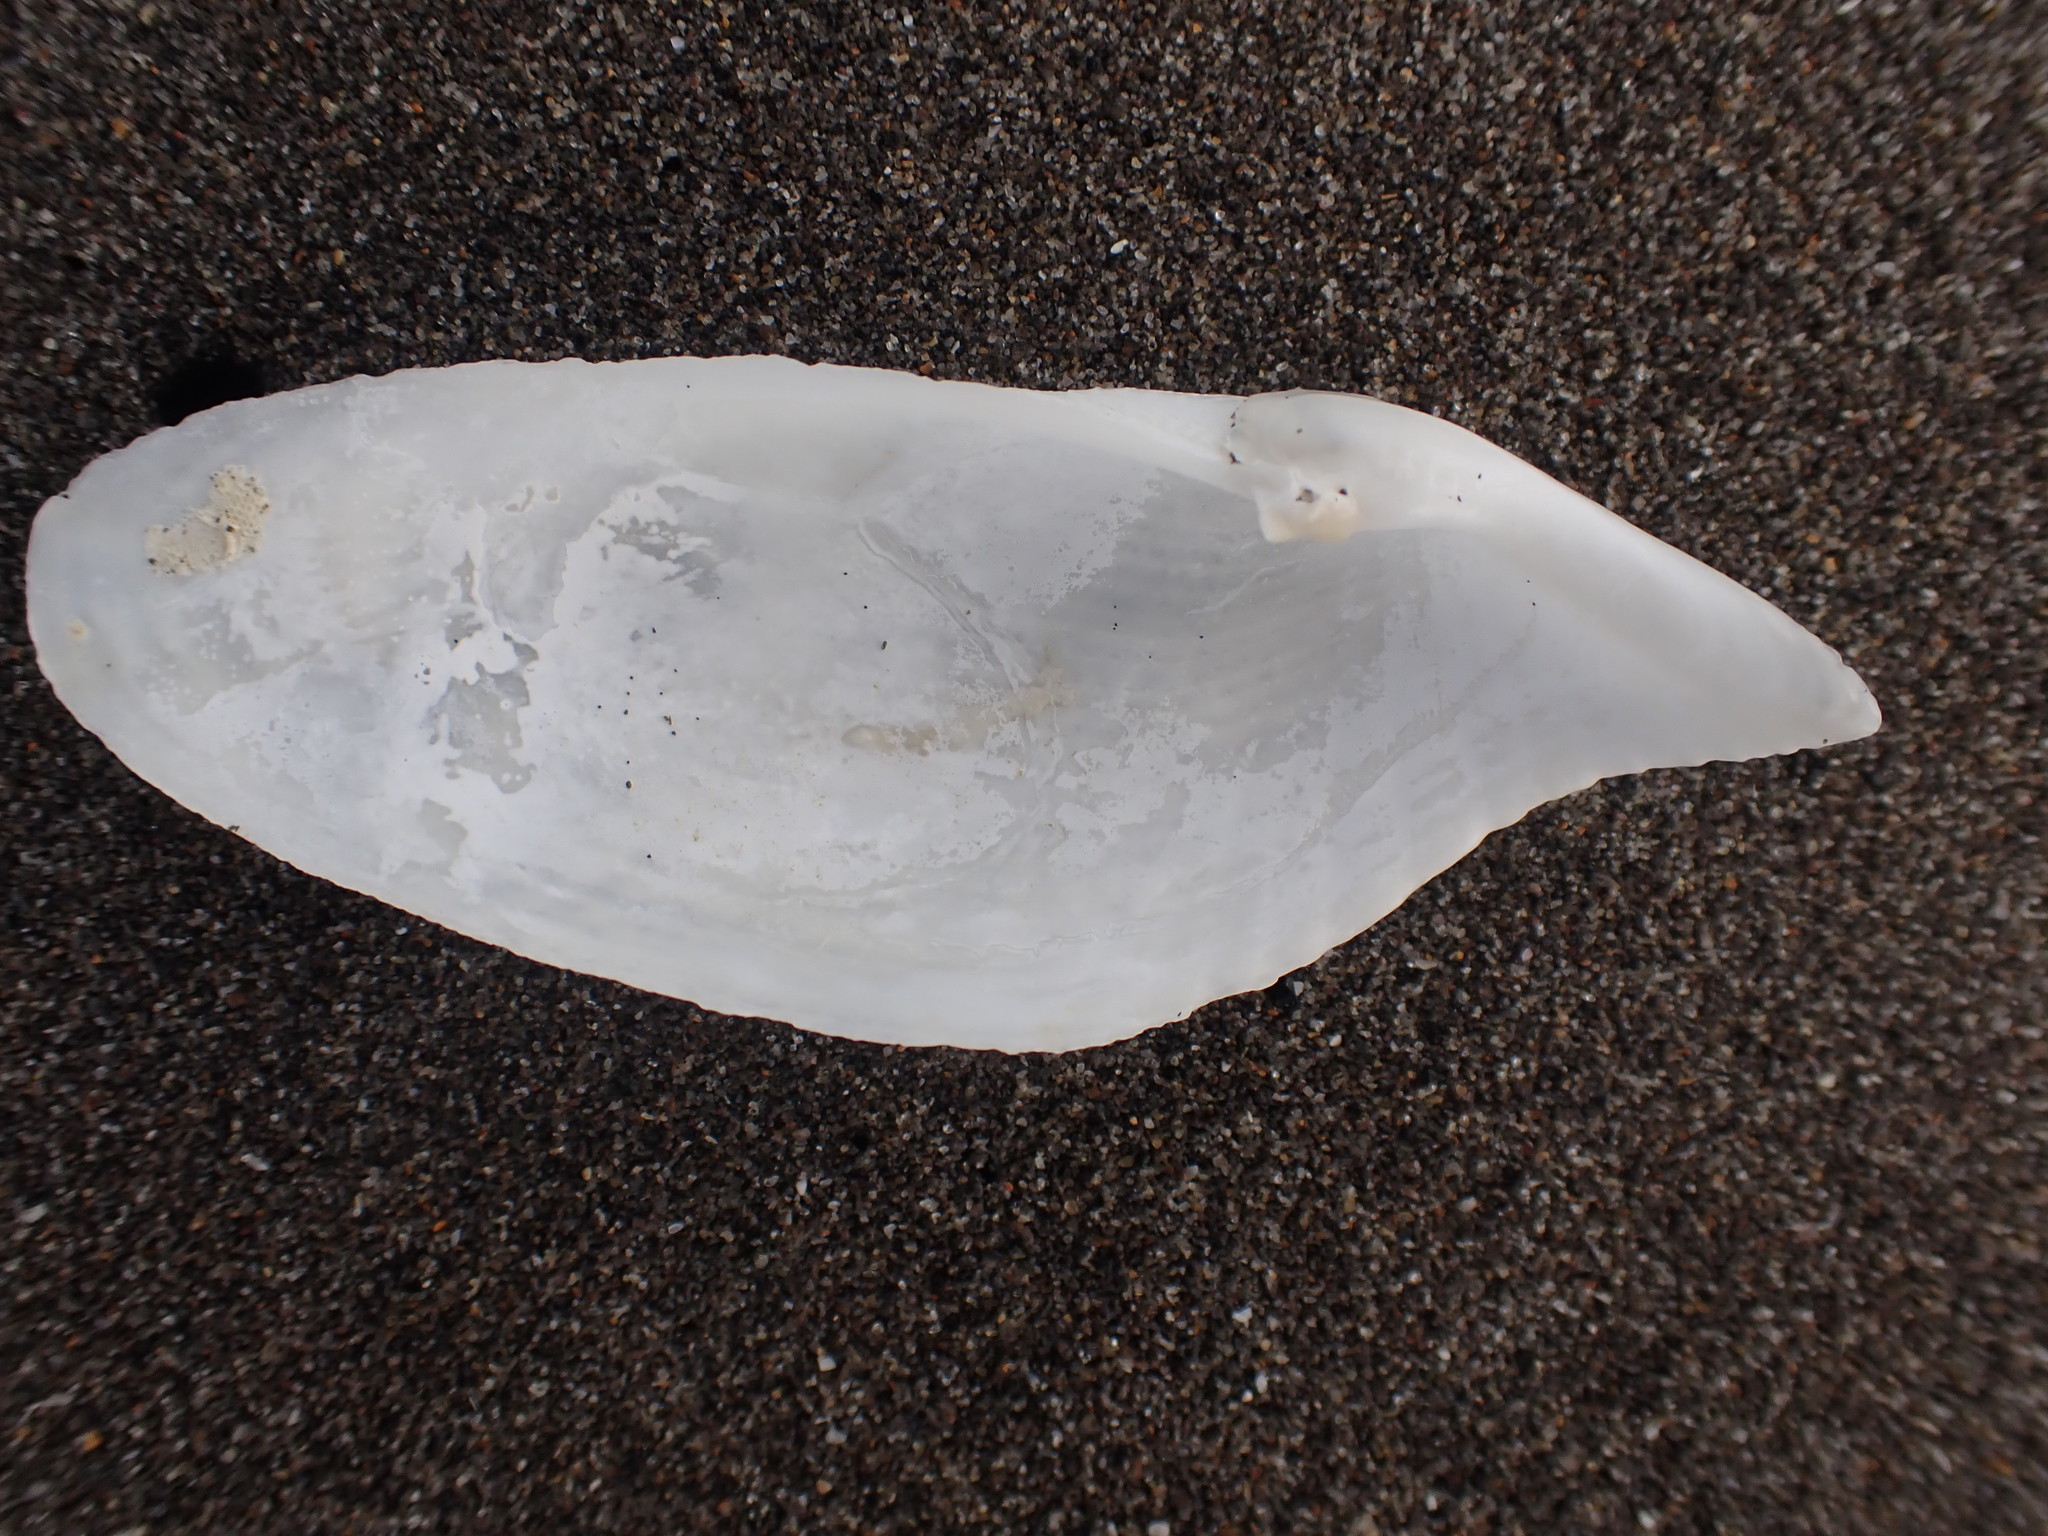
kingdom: Animalia
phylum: Mollusca
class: Bivalvia
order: Myida
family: Pholadidae
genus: Barnea
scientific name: Barnea similis
